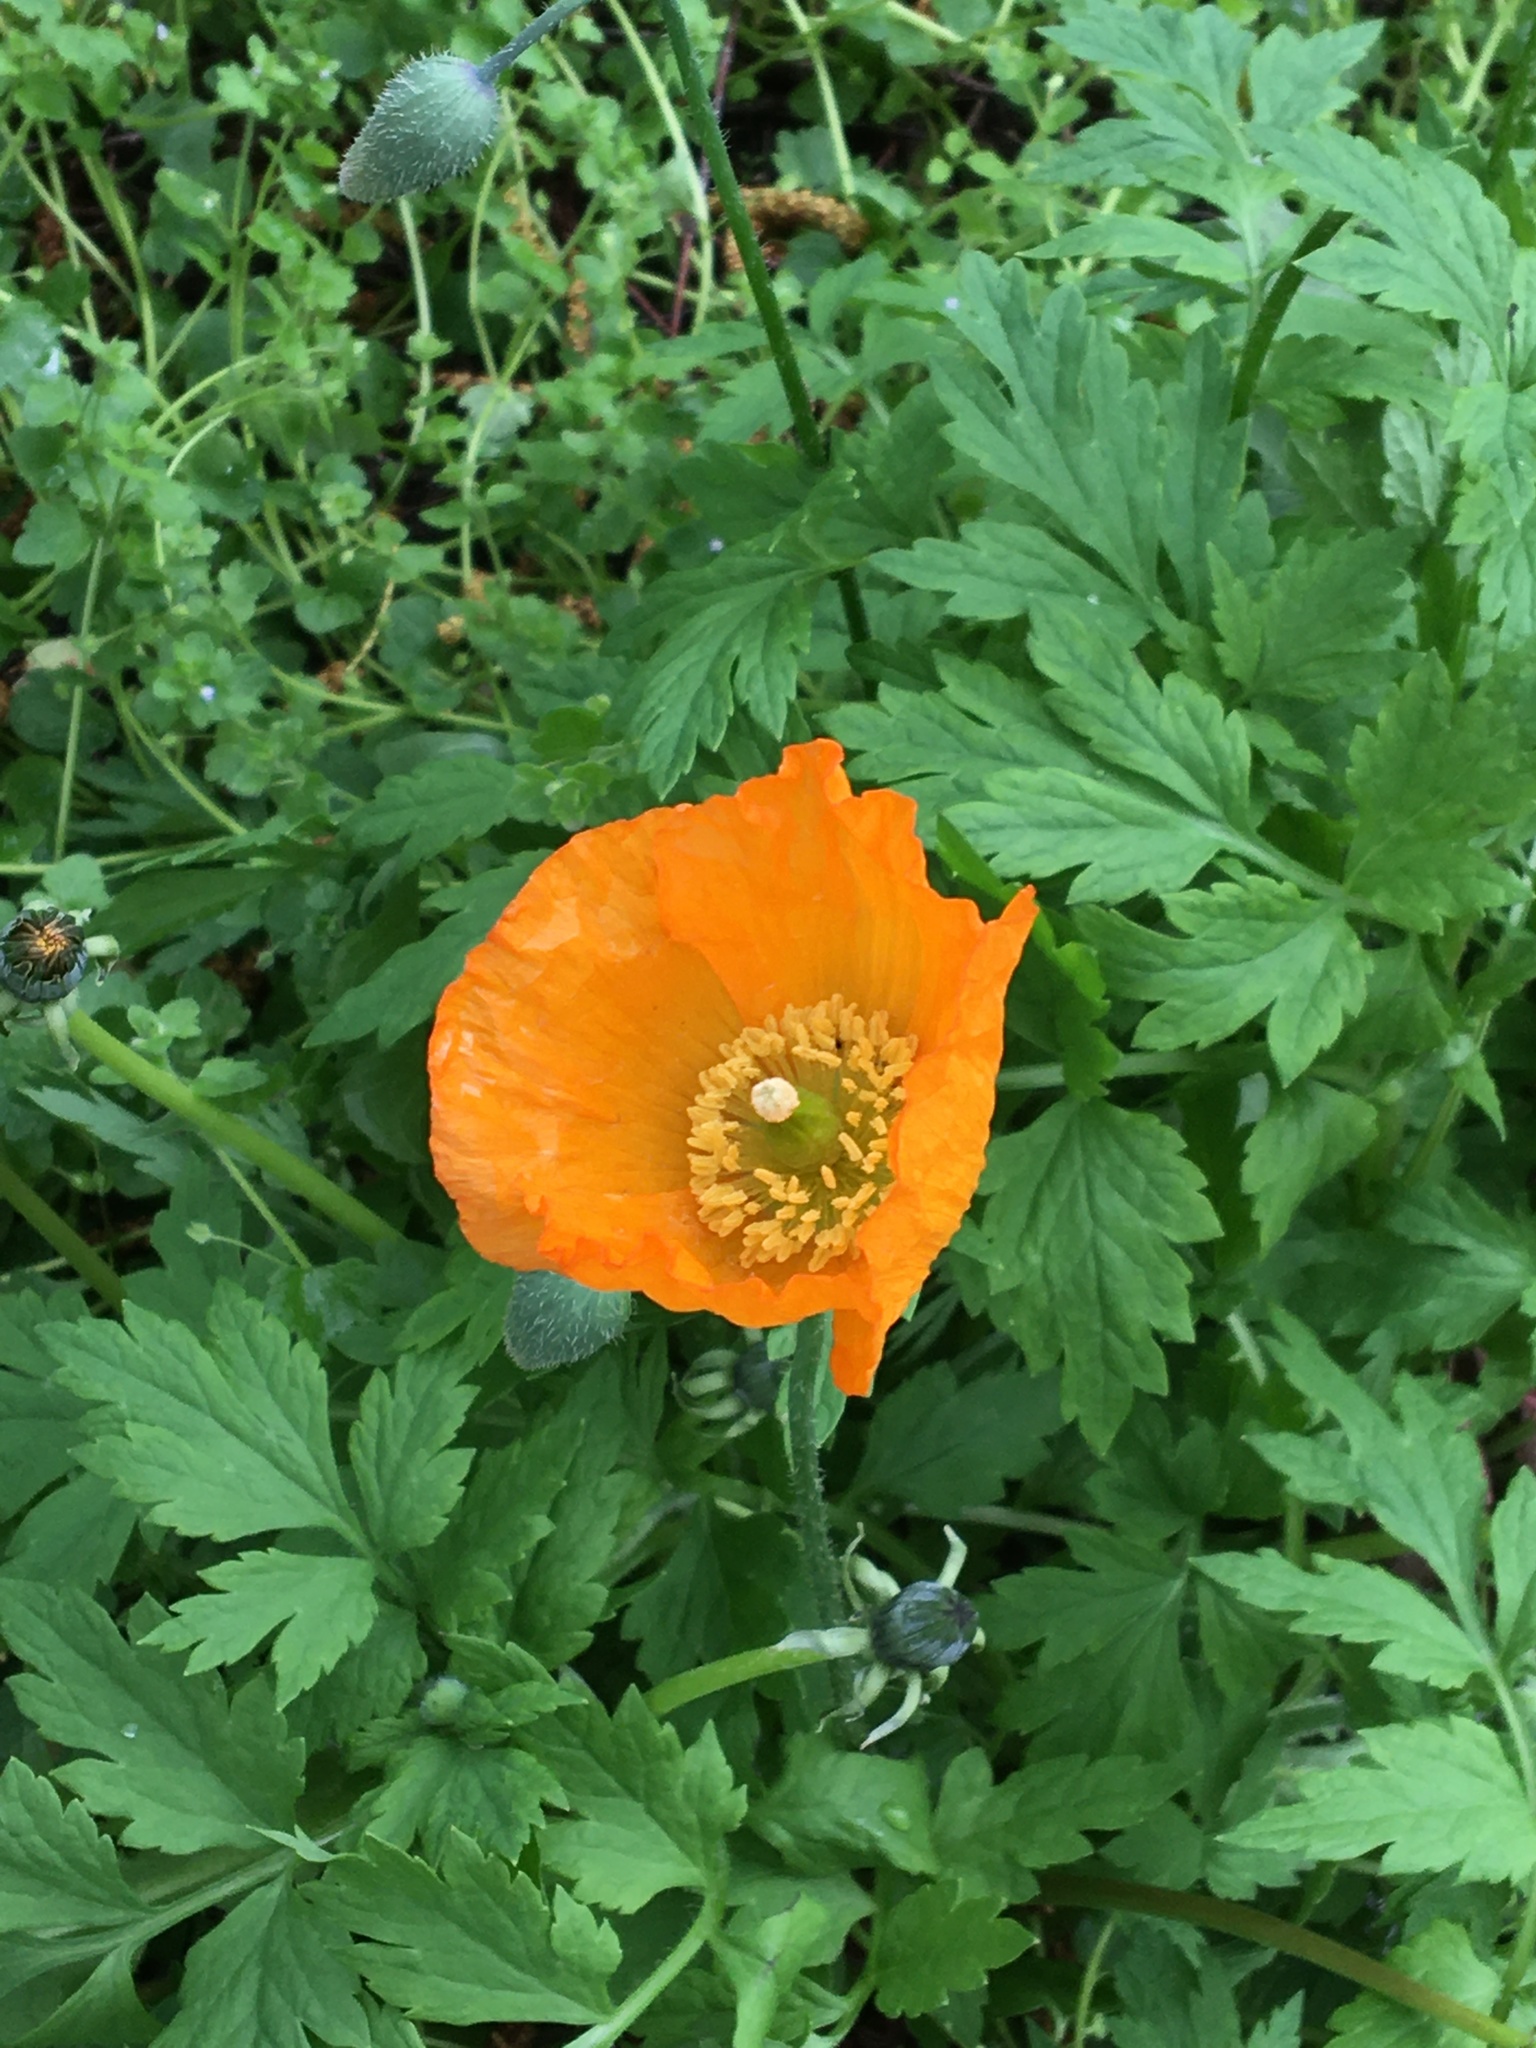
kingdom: Plantae
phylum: Tracheophyta
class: Magnoliopsida
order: Ranunculales
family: Papaveraceae
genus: Papaver
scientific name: Papaver cambricum
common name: Poppy
